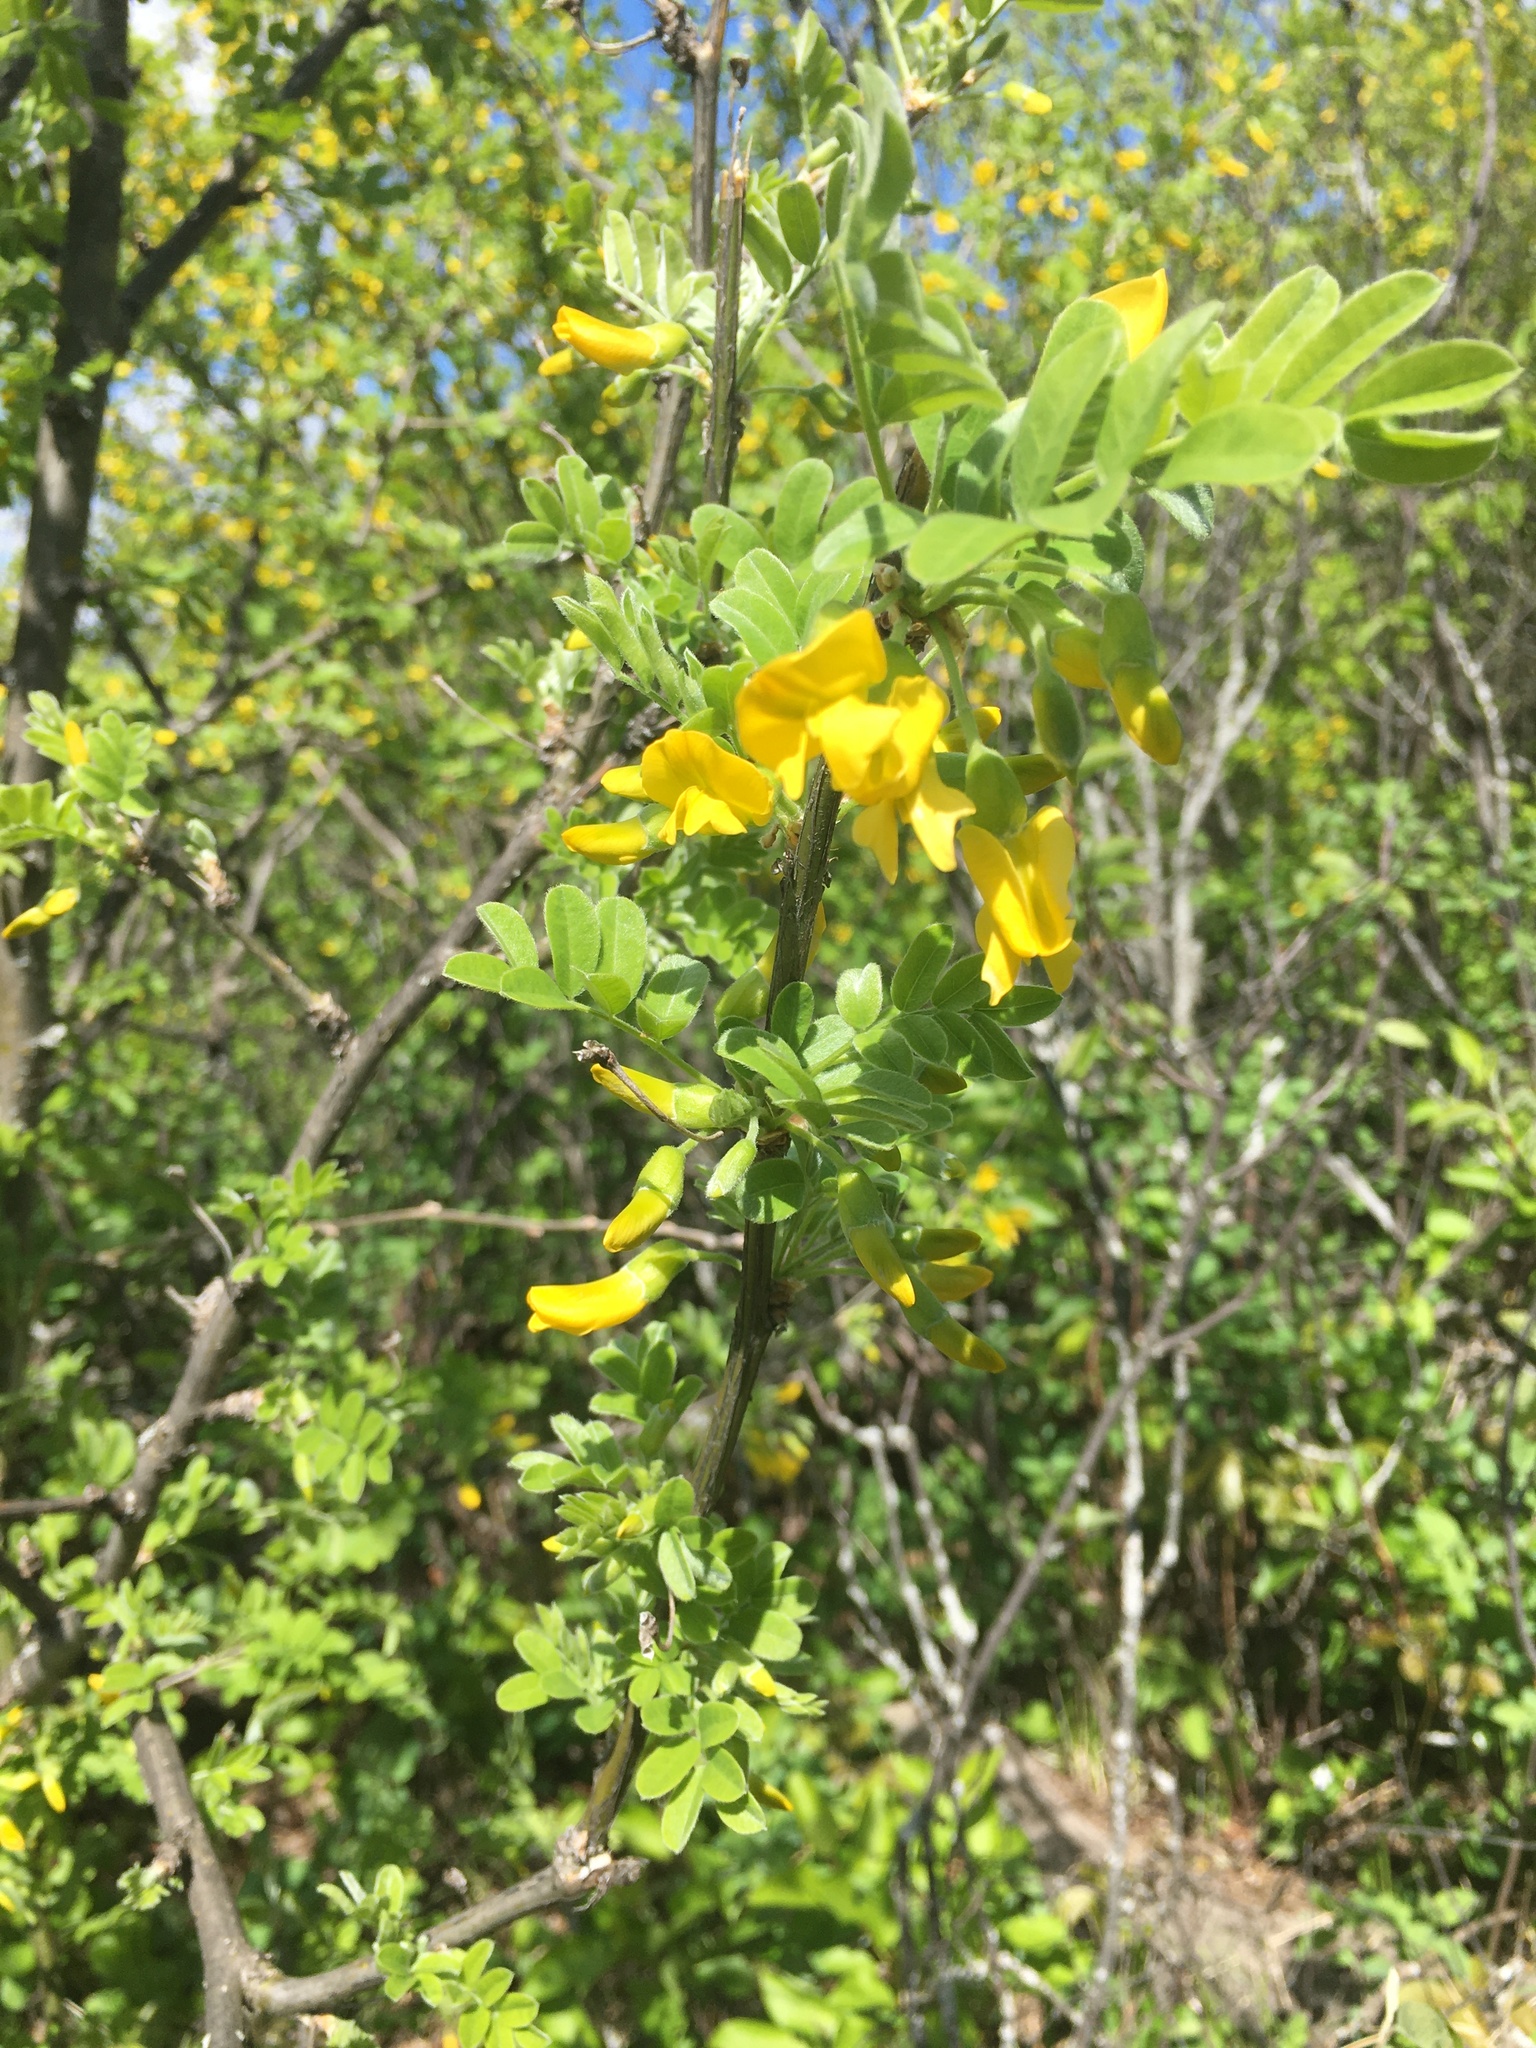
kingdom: Plantae
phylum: Tracheophyta
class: Magnoliopsida
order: Fabales
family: Fabaceae
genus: Caragana
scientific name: Caragana arborescens
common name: Siberian peashrub
